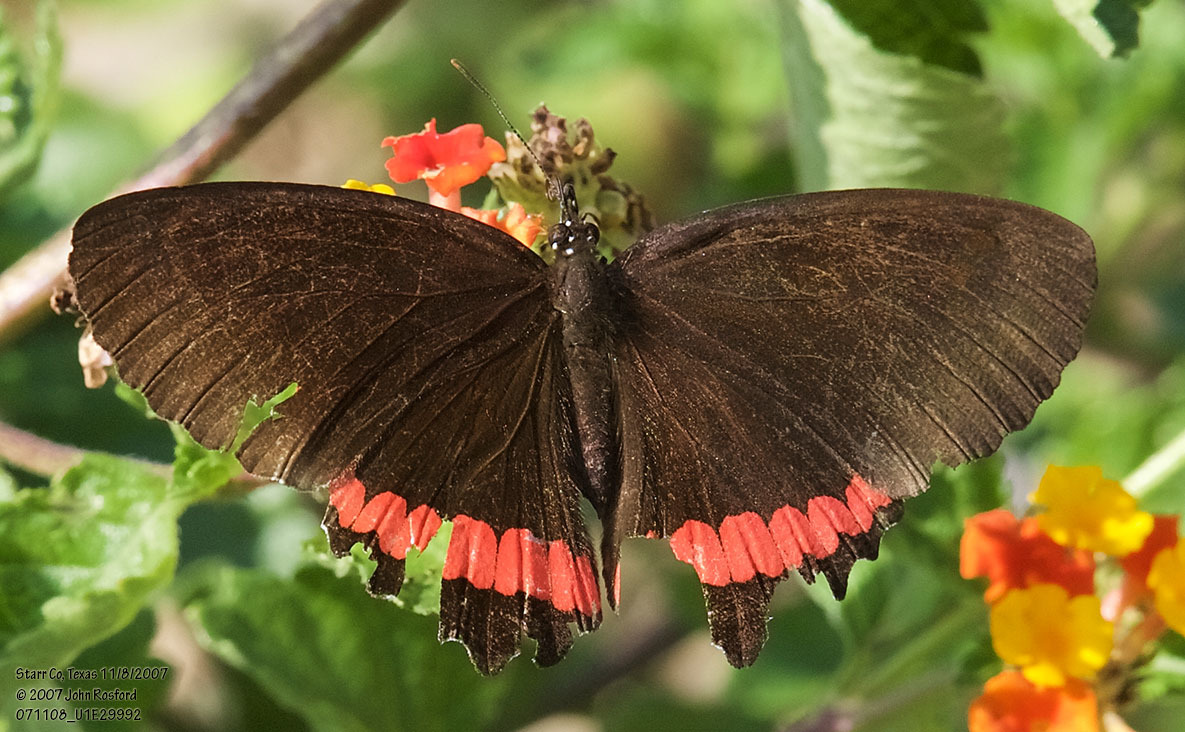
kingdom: Animalia
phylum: Arthropoda
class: Insecta
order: Lepidoptera
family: Nymphalidae
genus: Biblis
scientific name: Biblis aganisa
